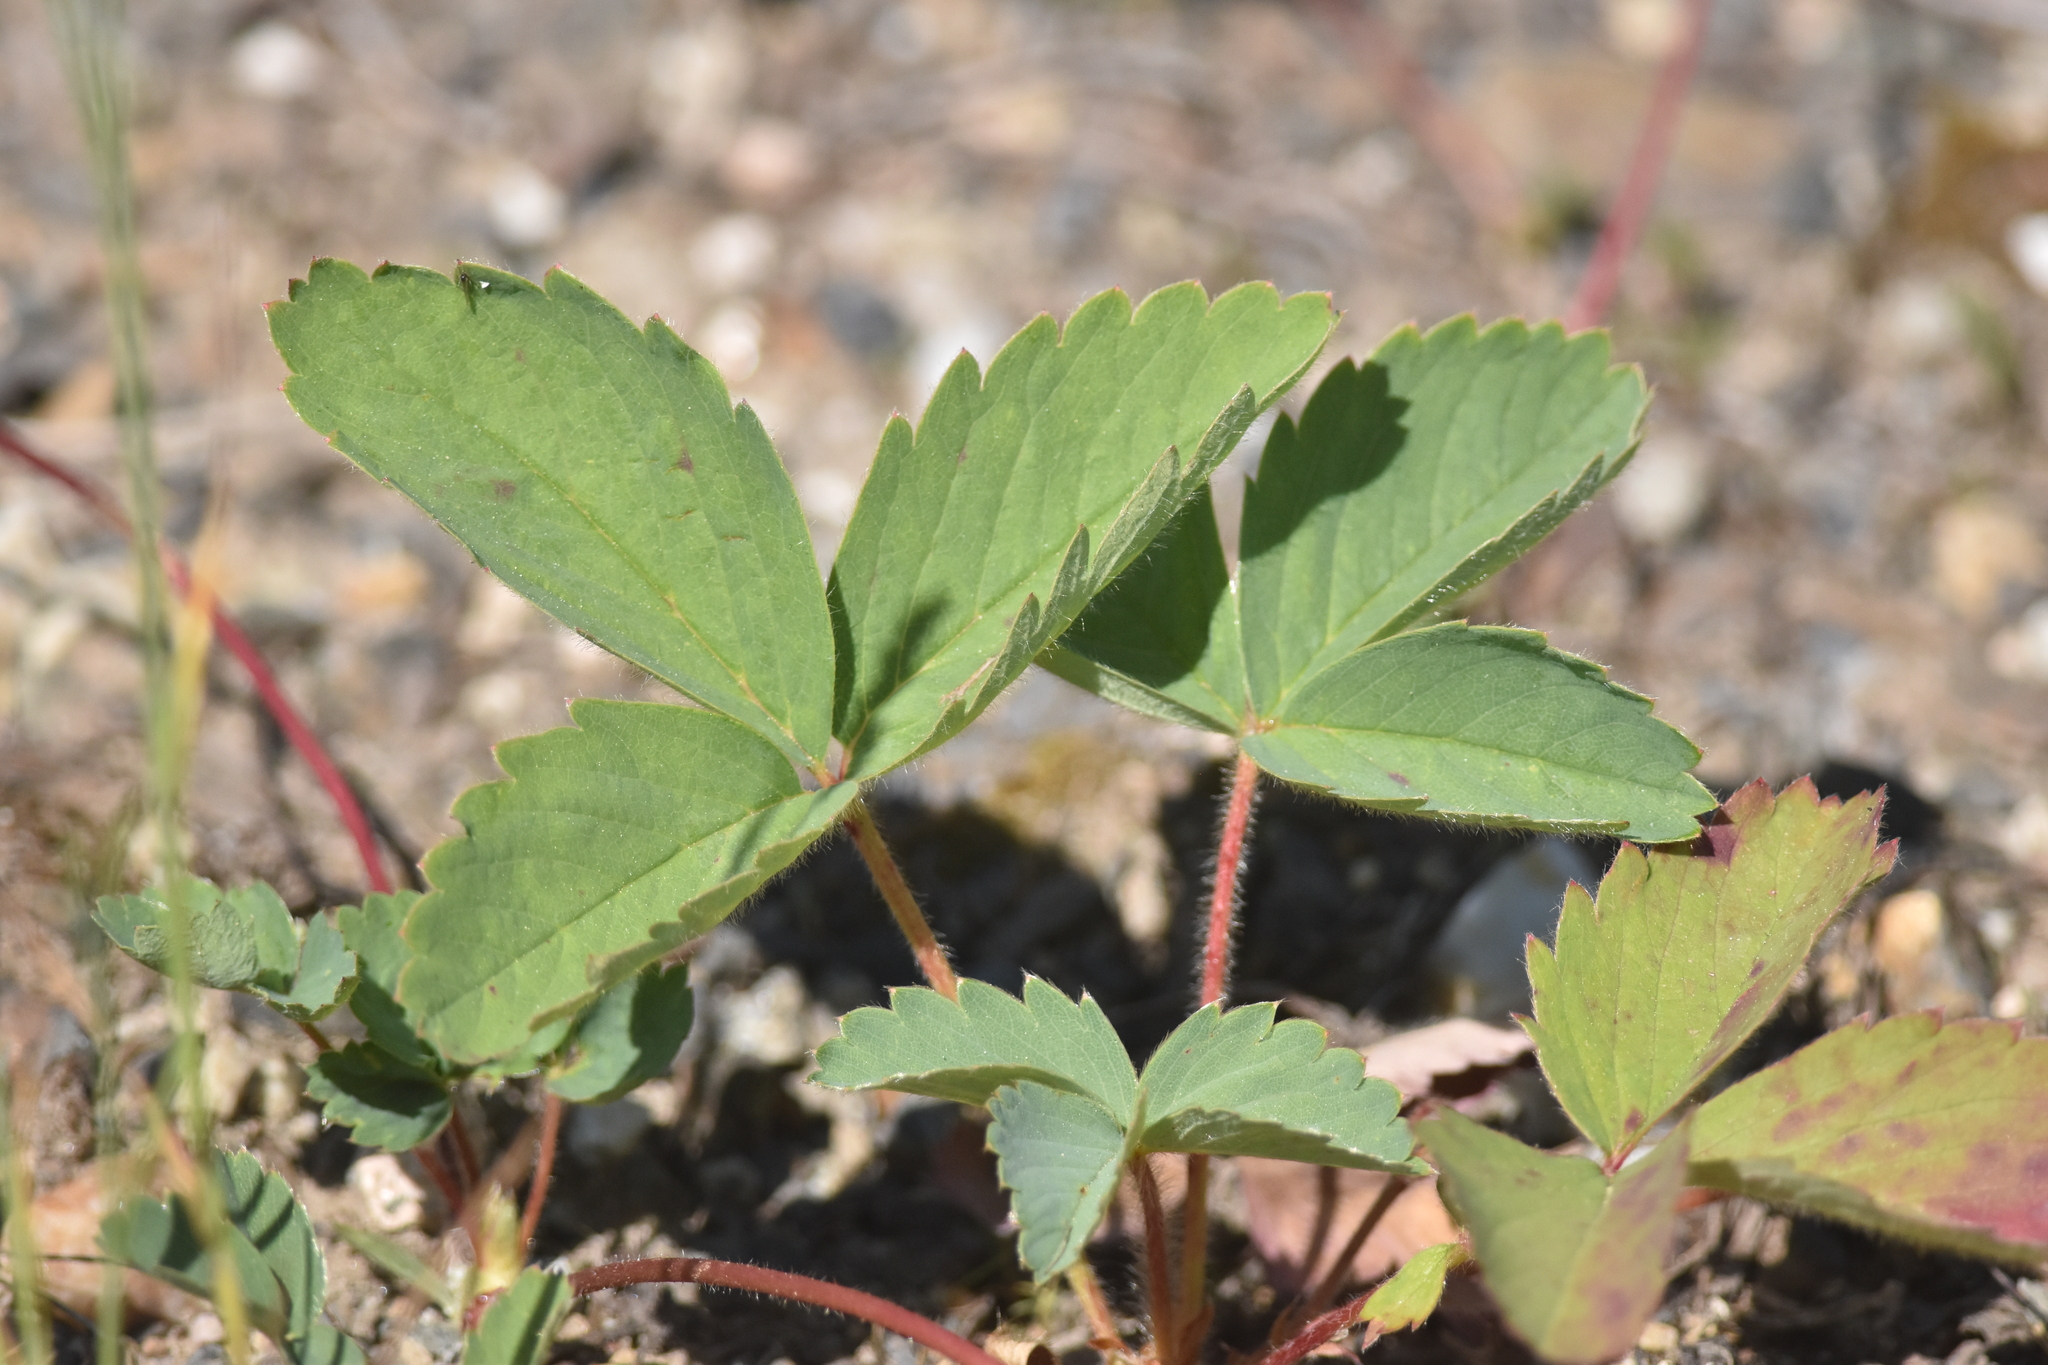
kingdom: Plantae
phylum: Tracheophyta
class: Magnoliopsida
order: Rosales
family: Rosaceae
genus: Fragaria
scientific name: Fragaria virginiana
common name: Thickleaved wild strawberry
